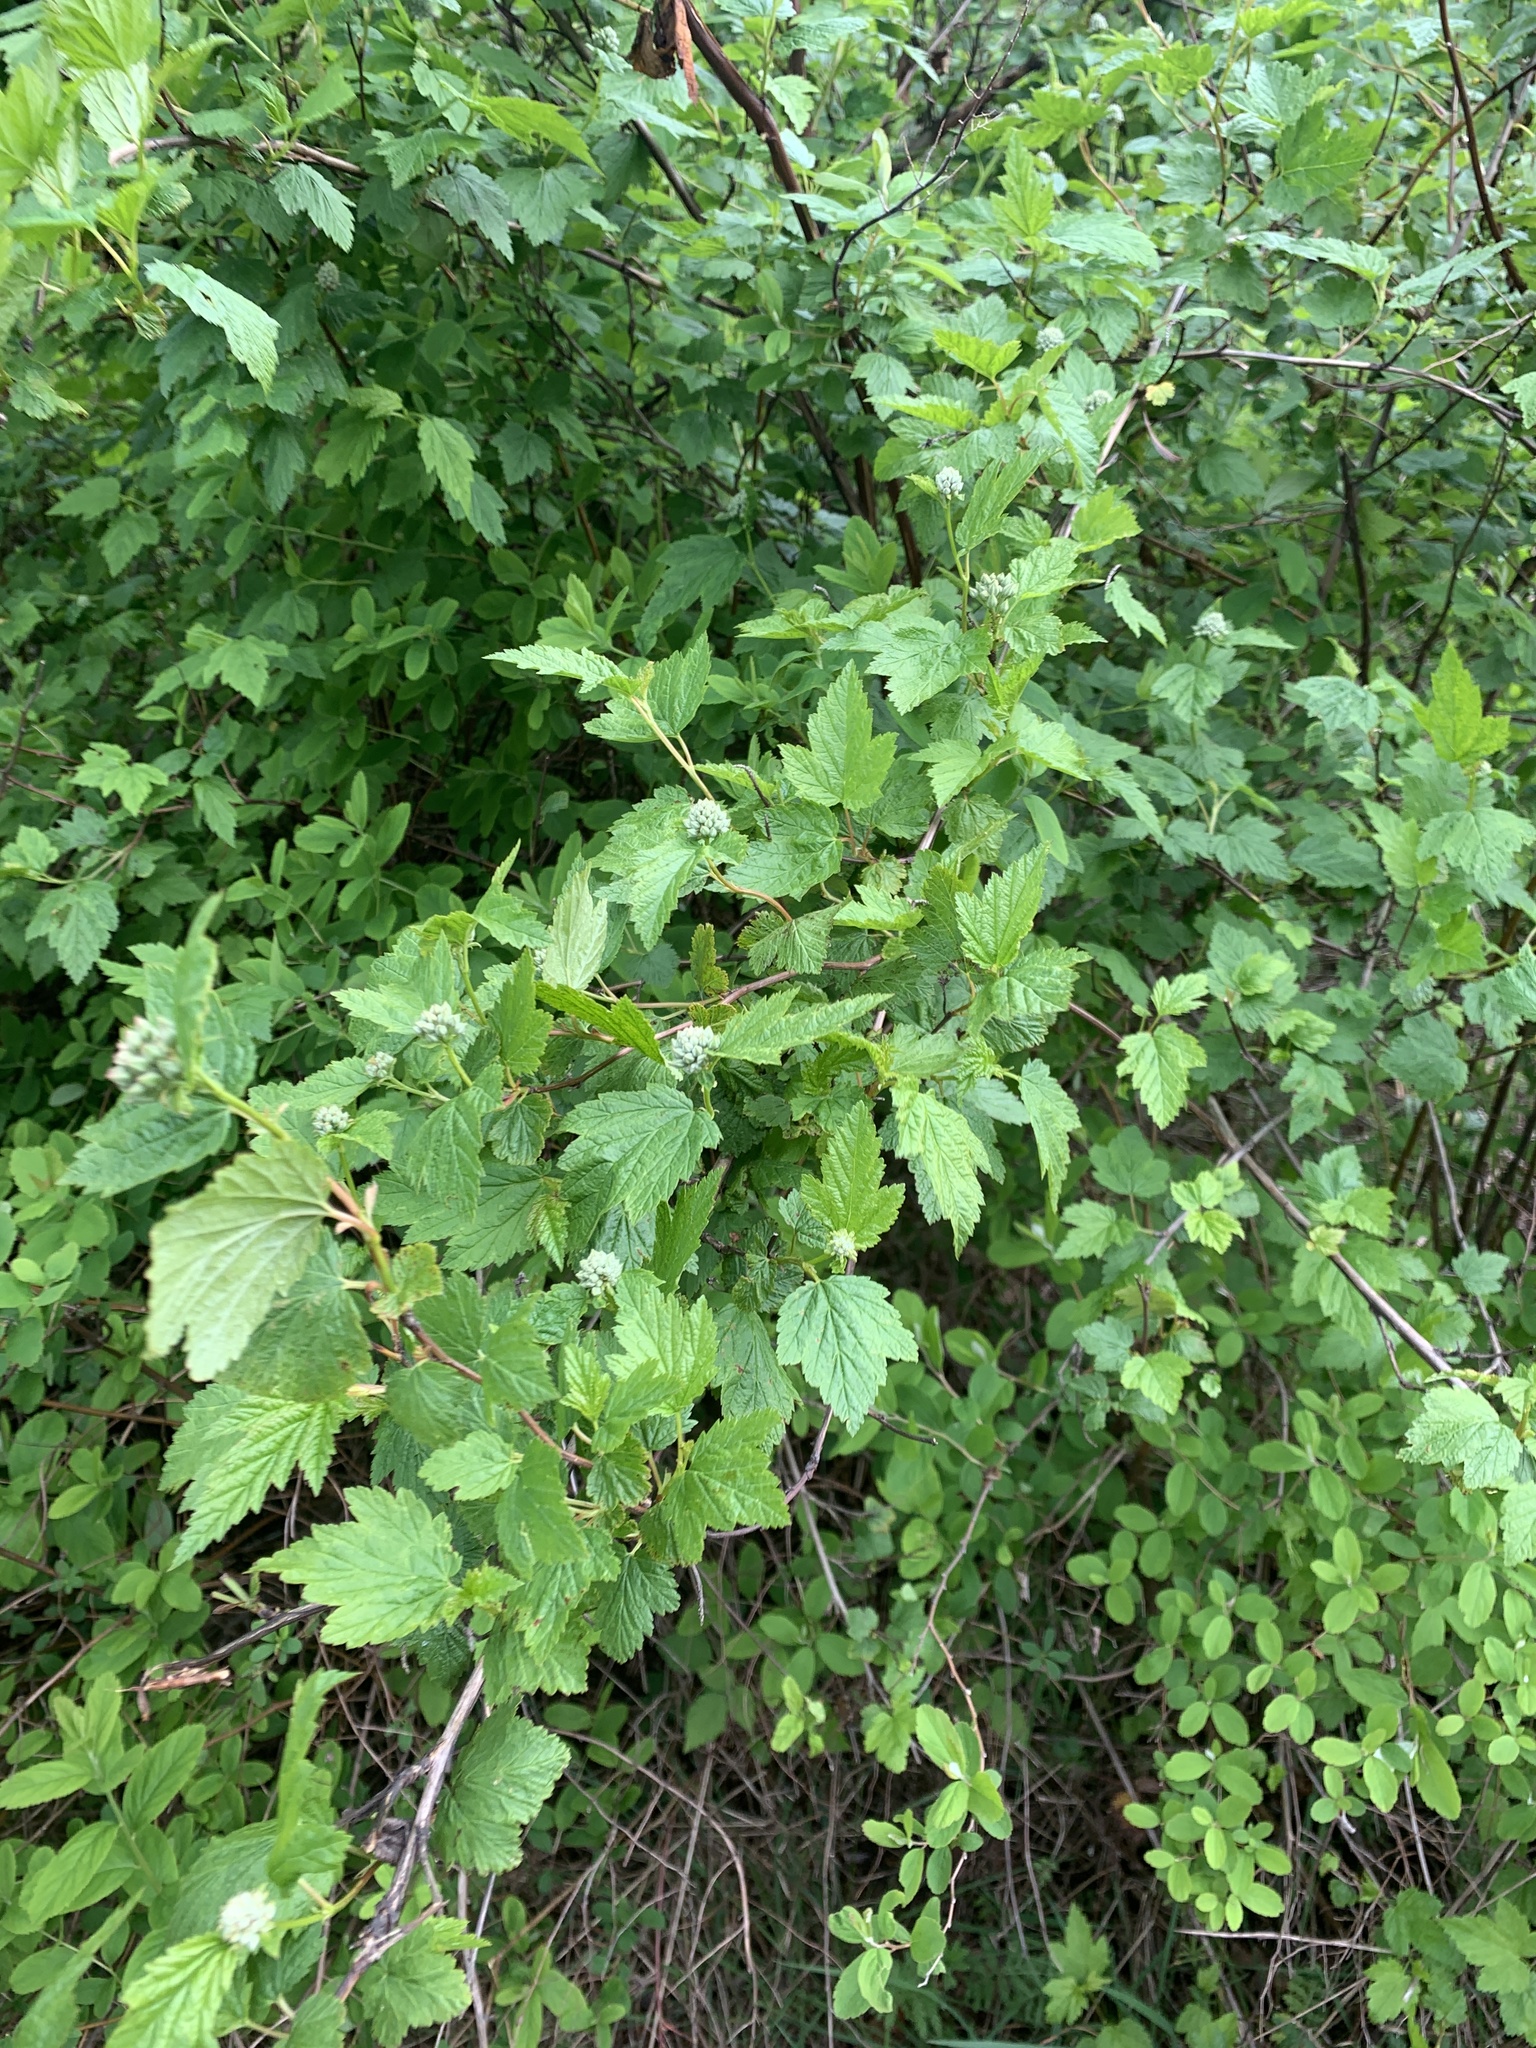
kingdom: Plantae
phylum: Tracheophyta
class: Magnoliopsida
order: Rosales
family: Rosaceae
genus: Physocarpus
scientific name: Physocarpus capitatus
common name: Pacific ninebark
